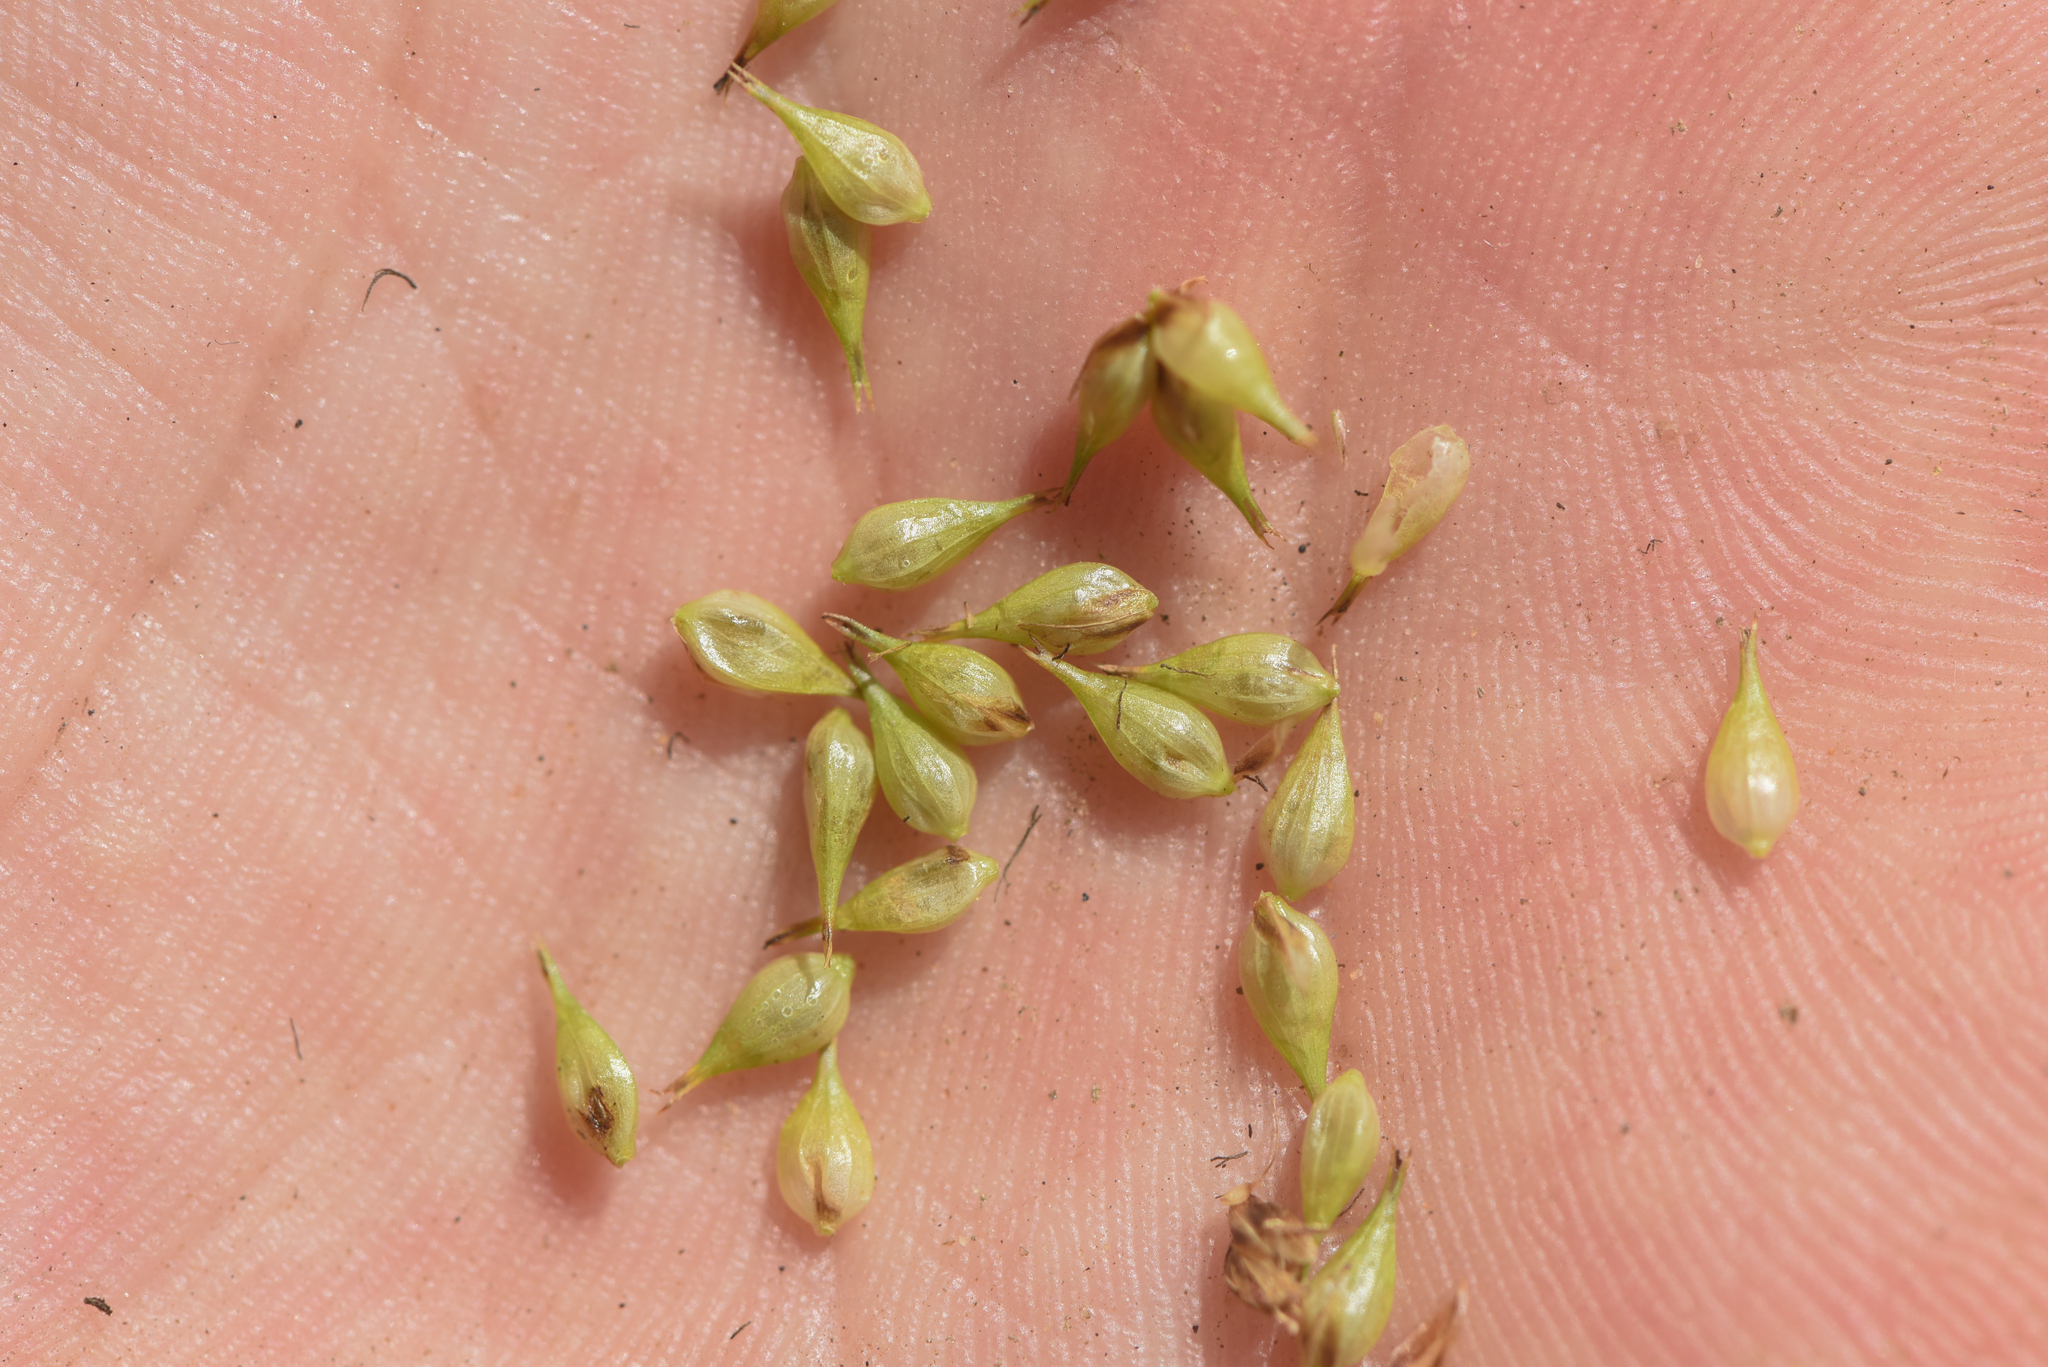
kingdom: Plantae
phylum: Tracheophyta
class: Liliopsida
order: Poales
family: Cyperaceae
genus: Carex
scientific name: Carex utriculata
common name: Beaked sedge
